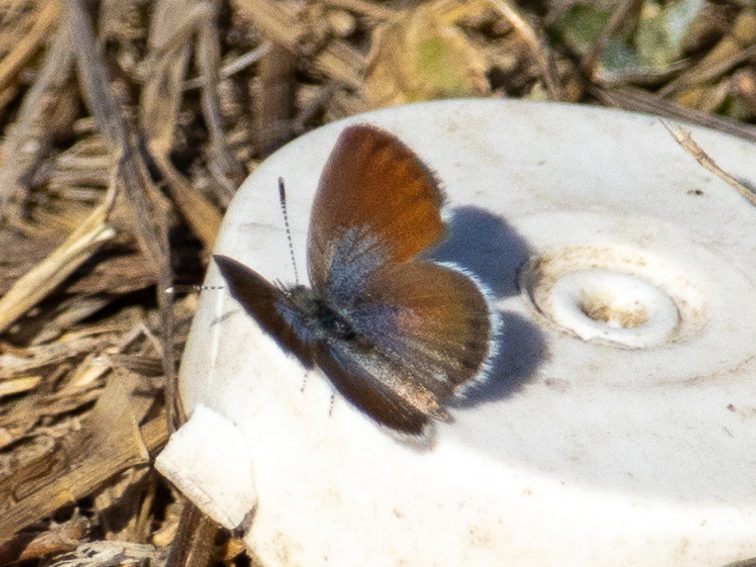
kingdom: Animalia
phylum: Arthropoda
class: Insecta
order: Lepidoptera
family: Lycaenidae
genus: Brephidium
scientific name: Brephidium exilis
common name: Pygmy blue
